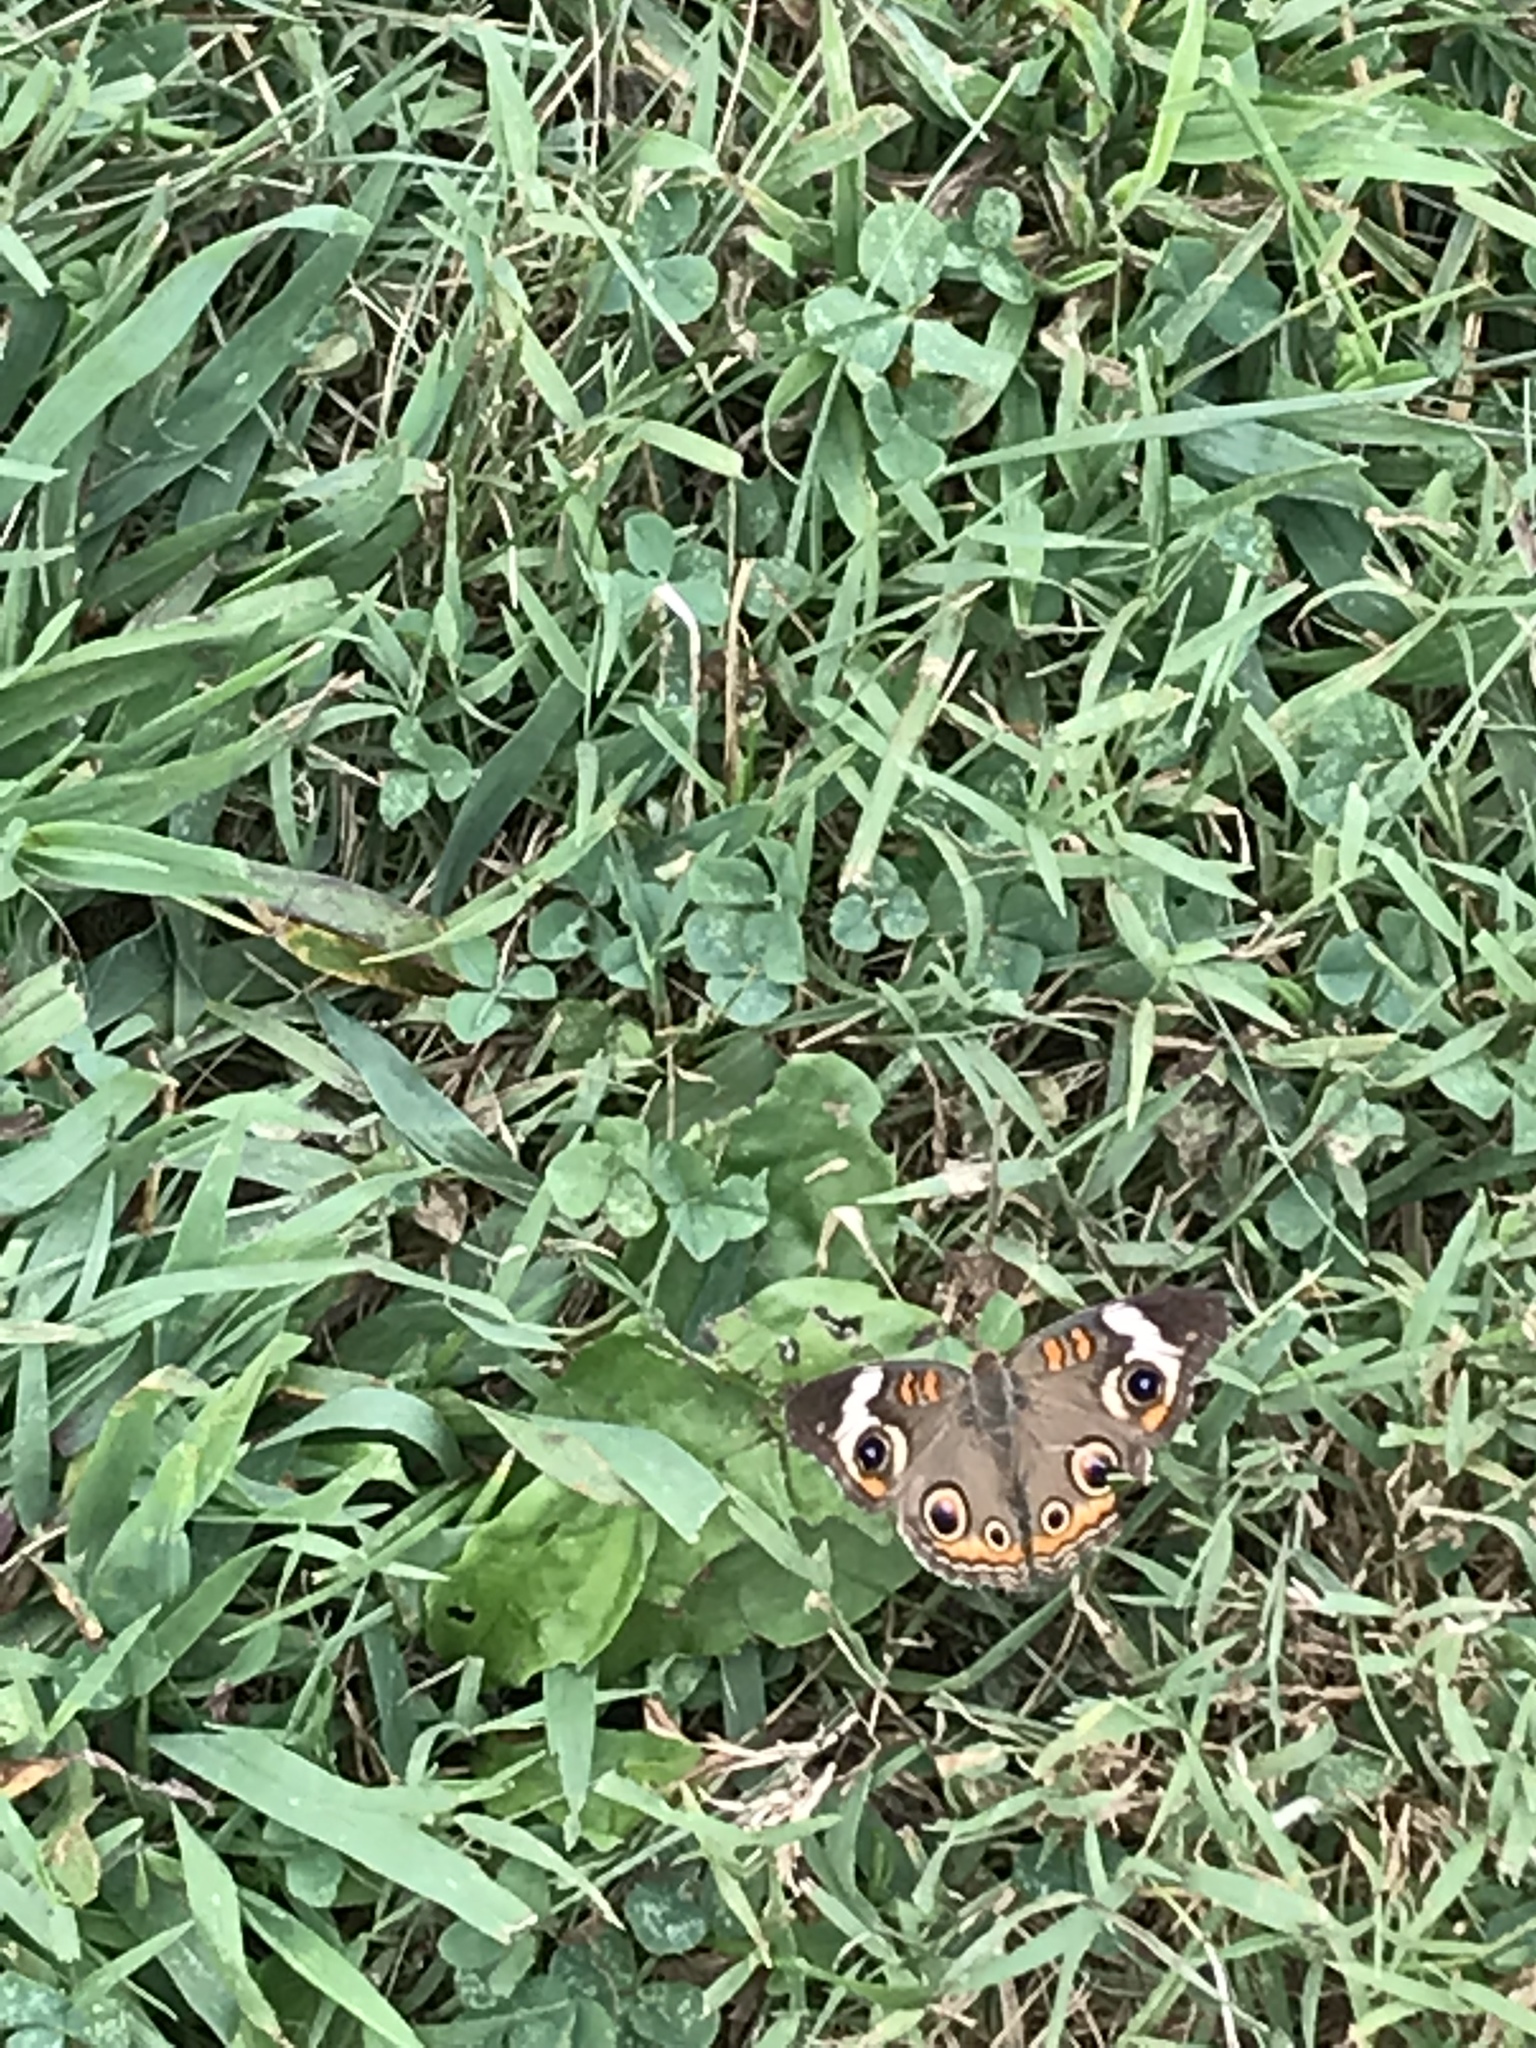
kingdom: Animalia
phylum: Arthropoda
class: Insecta
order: Lepidoptera
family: Nymphalidae
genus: Junonia
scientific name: Junonia coenia
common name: Common buckeye
